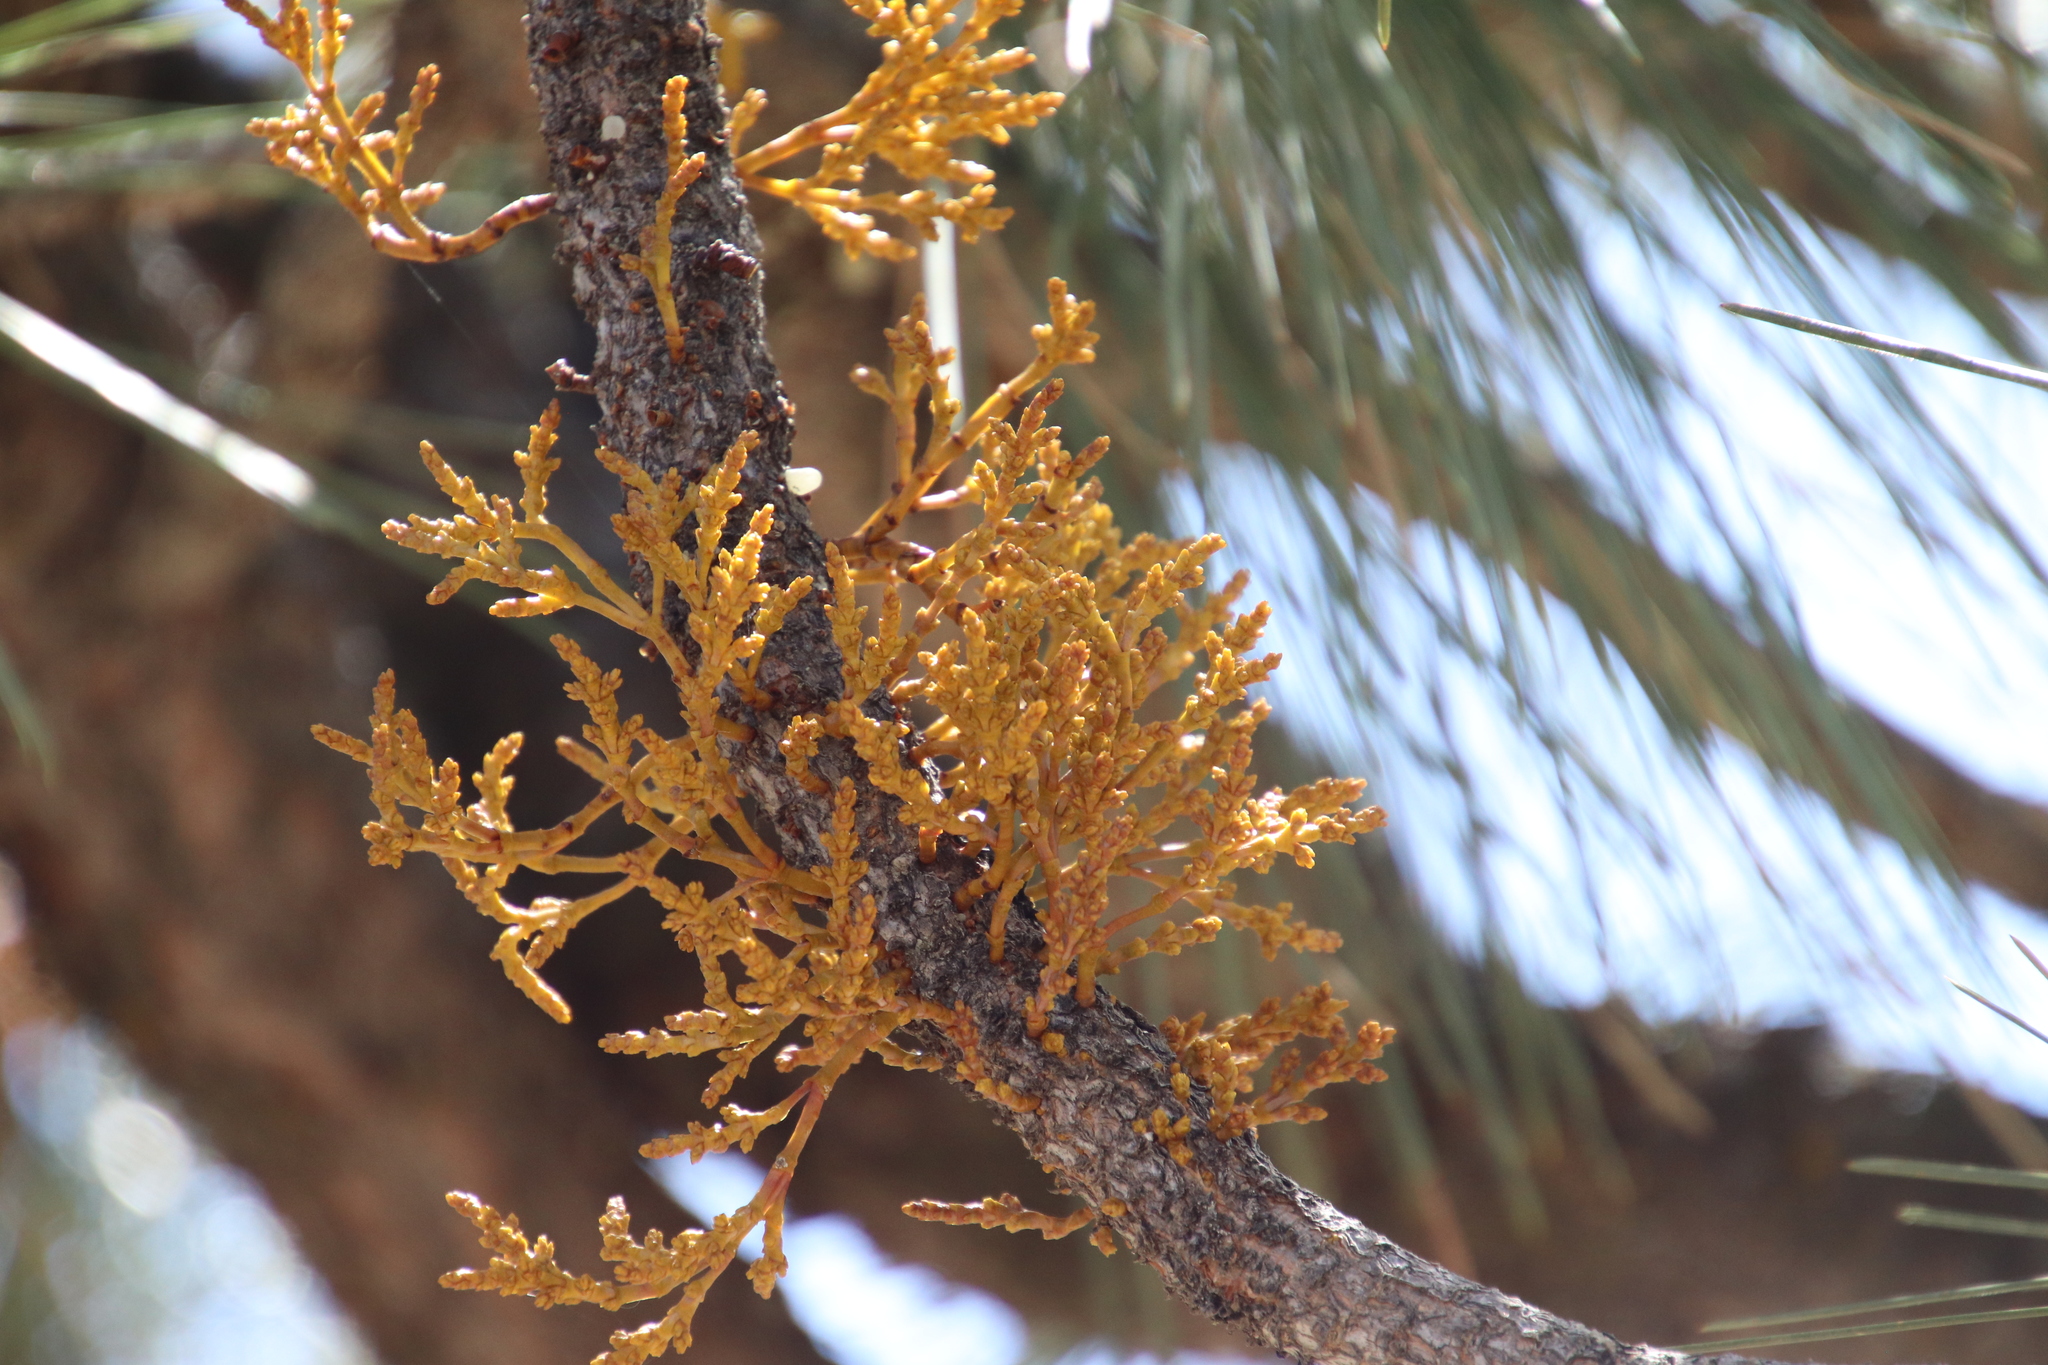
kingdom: Plantae
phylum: Tracheophyta
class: Magnoliopsida
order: Santalales
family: Viscaceae
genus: Arceuthobium
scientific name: Arceuthobium campylopodum
